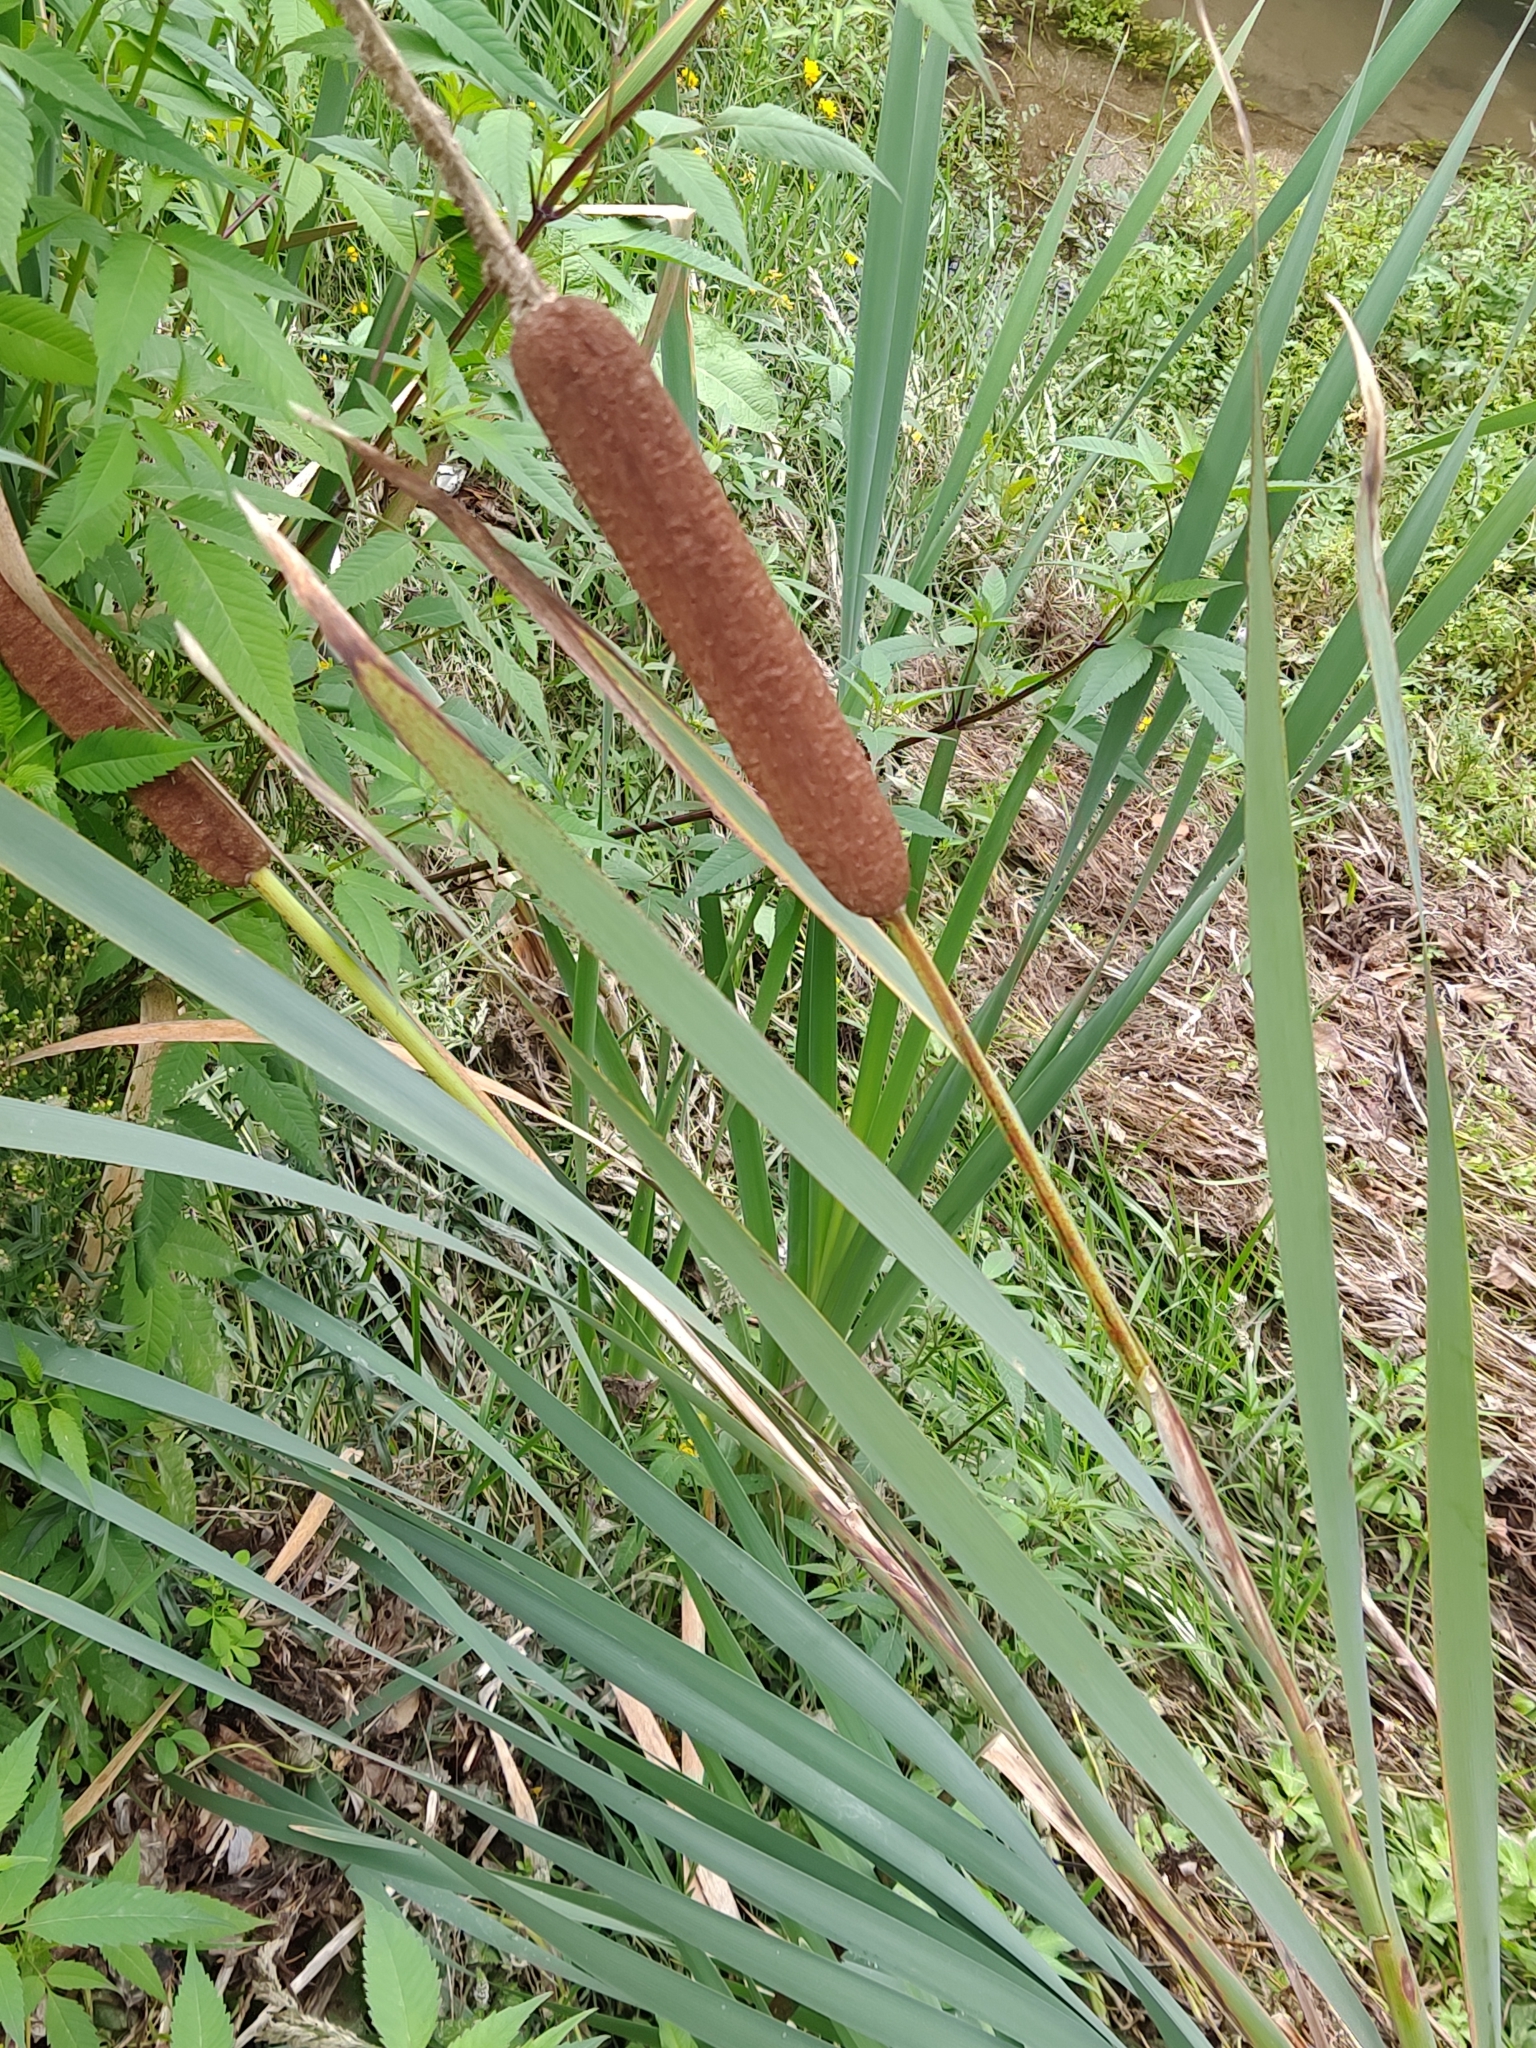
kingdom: Plantae
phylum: Tracheophyta
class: Liliopsida
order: Poales
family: Typhaceae
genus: Typha
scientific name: Typha latifolia
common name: Broadleaf cattail
